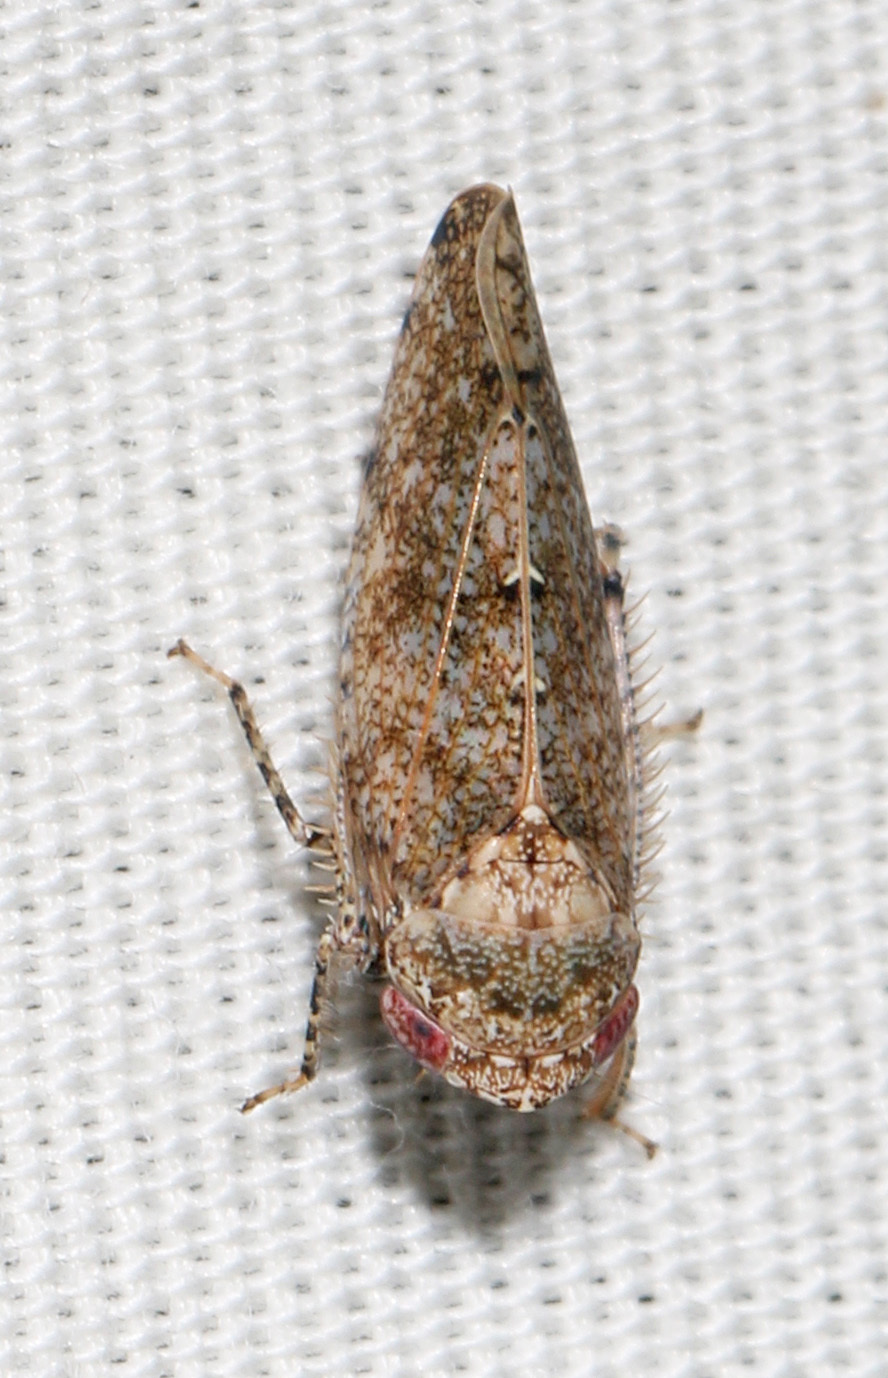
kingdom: Animalia
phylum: Arthropoda
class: Insecta
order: Hemiptera
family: Cicadellidae
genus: Paraphlepsius
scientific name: Paraphlepsius
